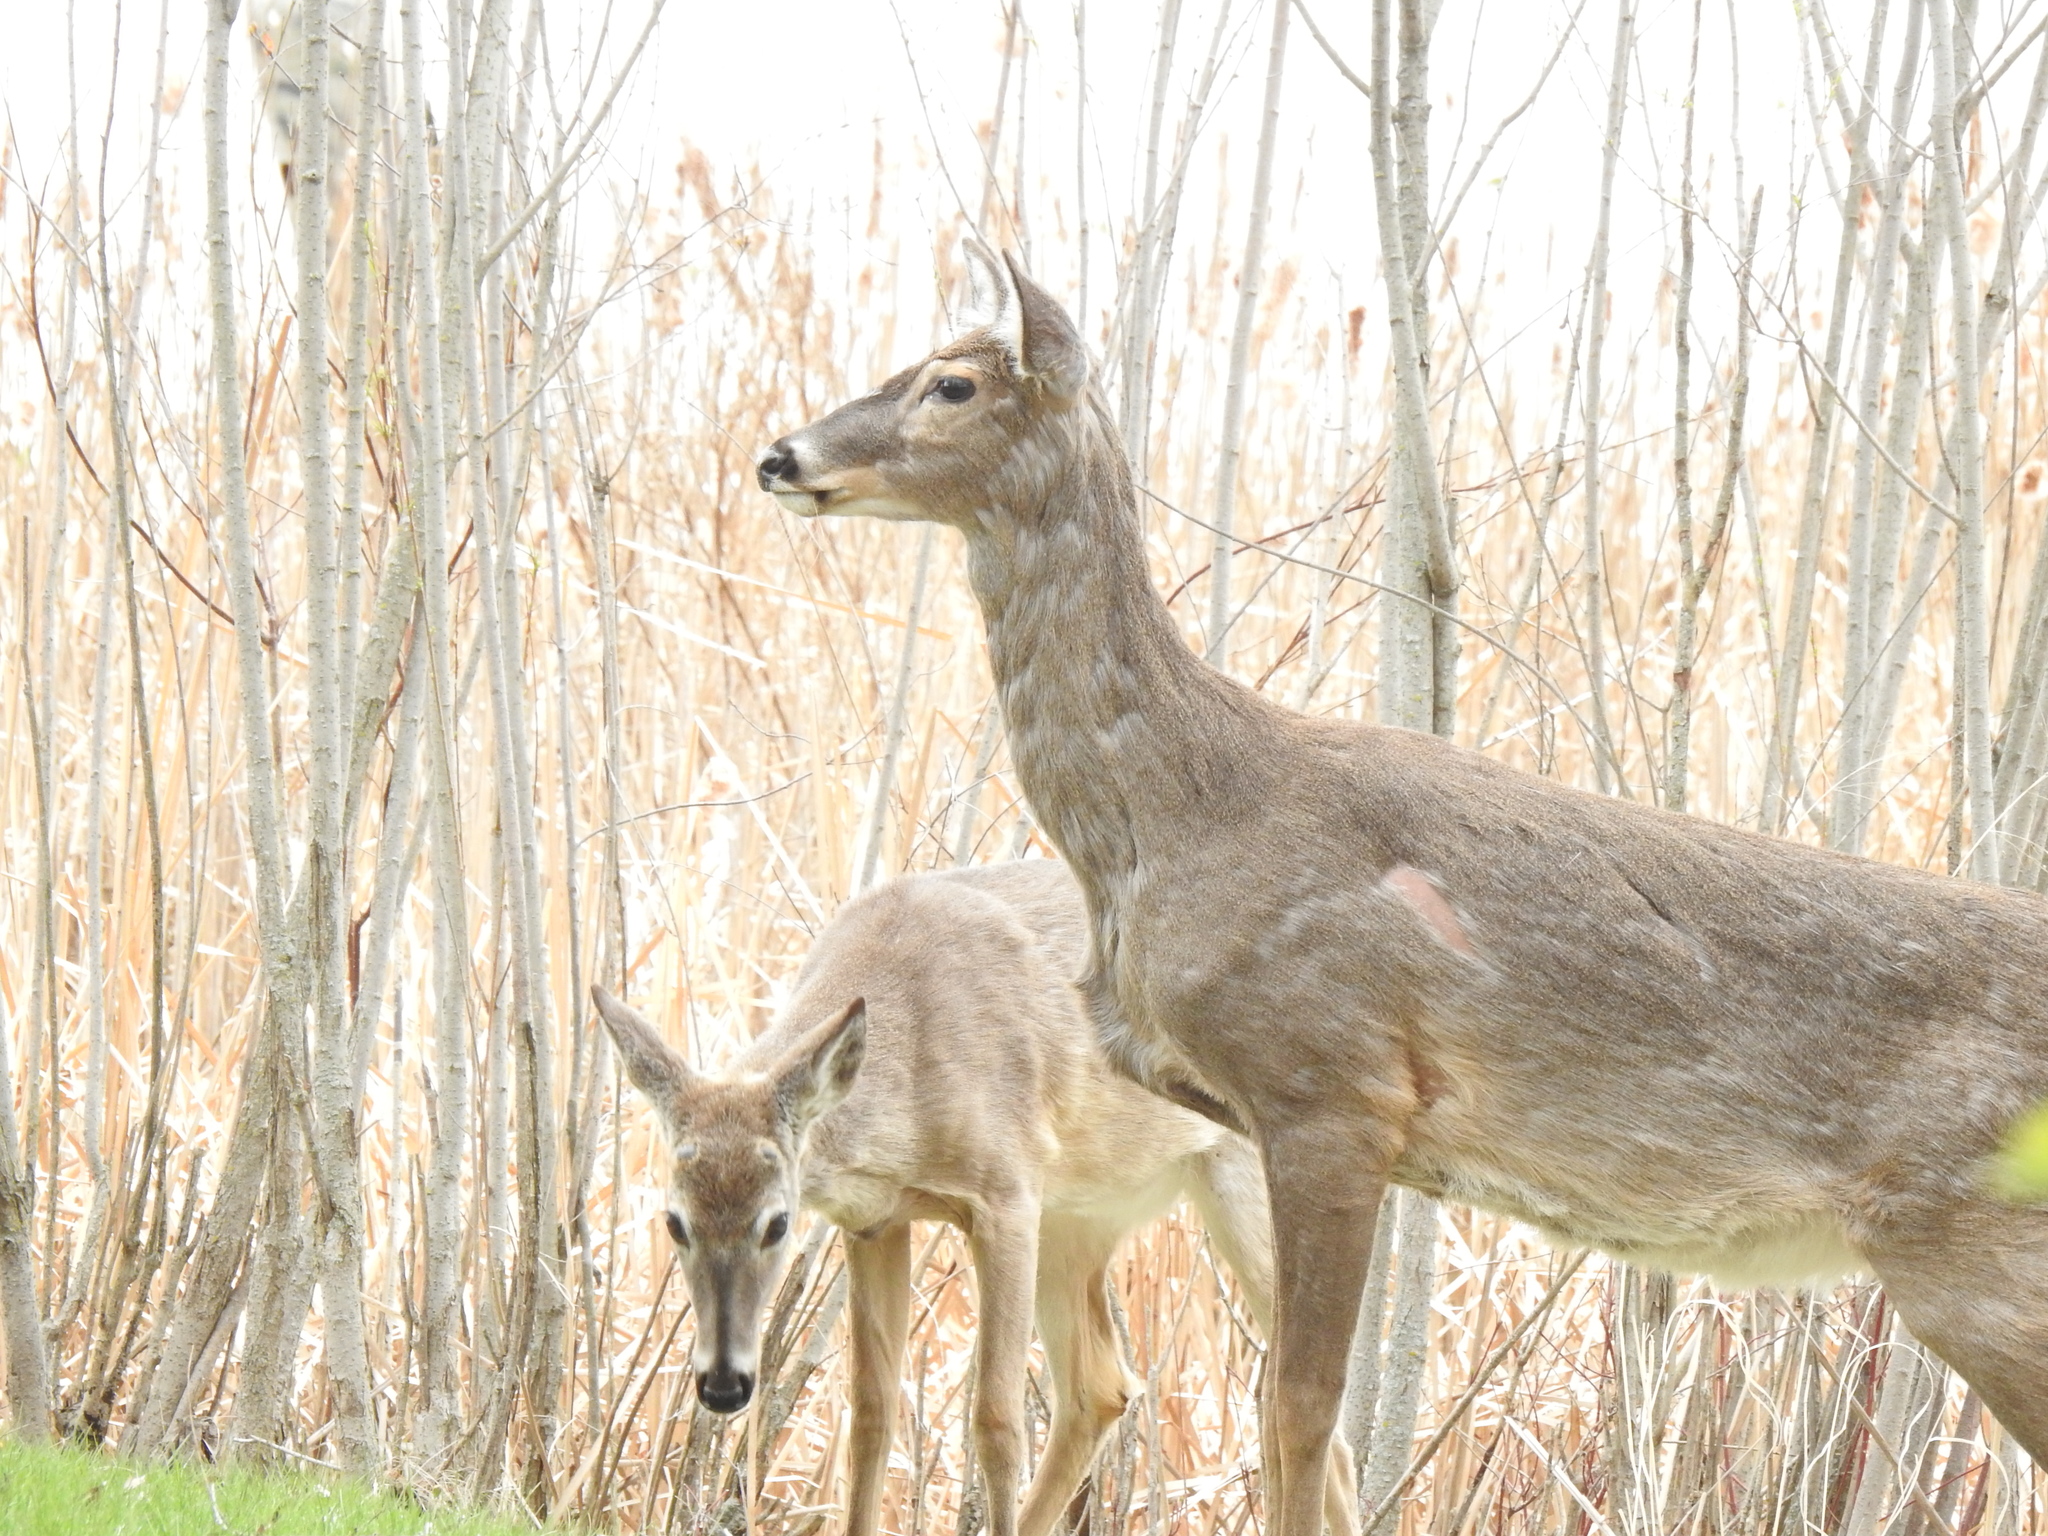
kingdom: Animalia
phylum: Chordata
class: Mammalia
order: Artiodactyla
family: Cervidae
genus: Odocoileus
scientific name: Odocoileus virginianus
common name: White-tailed deer
